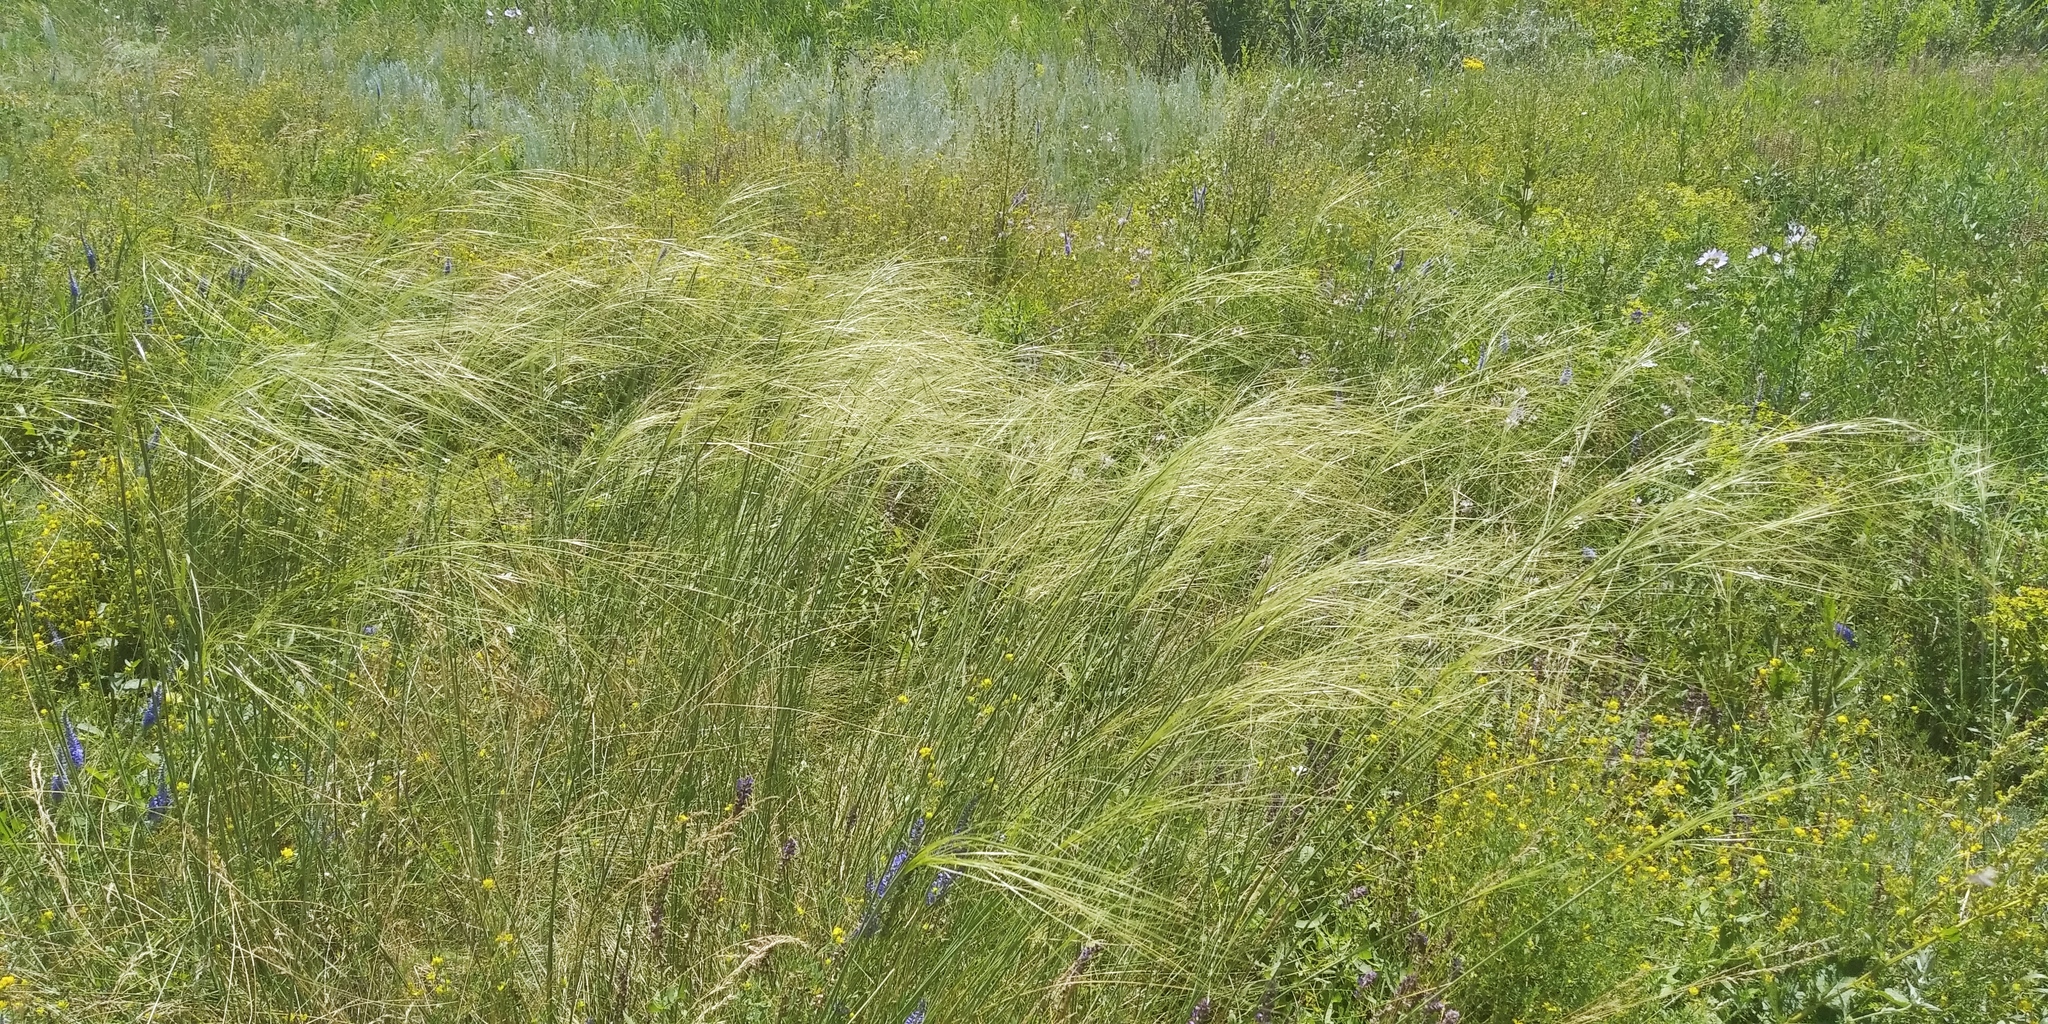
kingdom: Plantae
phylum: Tracheophyta
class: Liliopsida
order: Poales
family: Poaceae
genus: Stipa
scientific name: Stipa capillata
